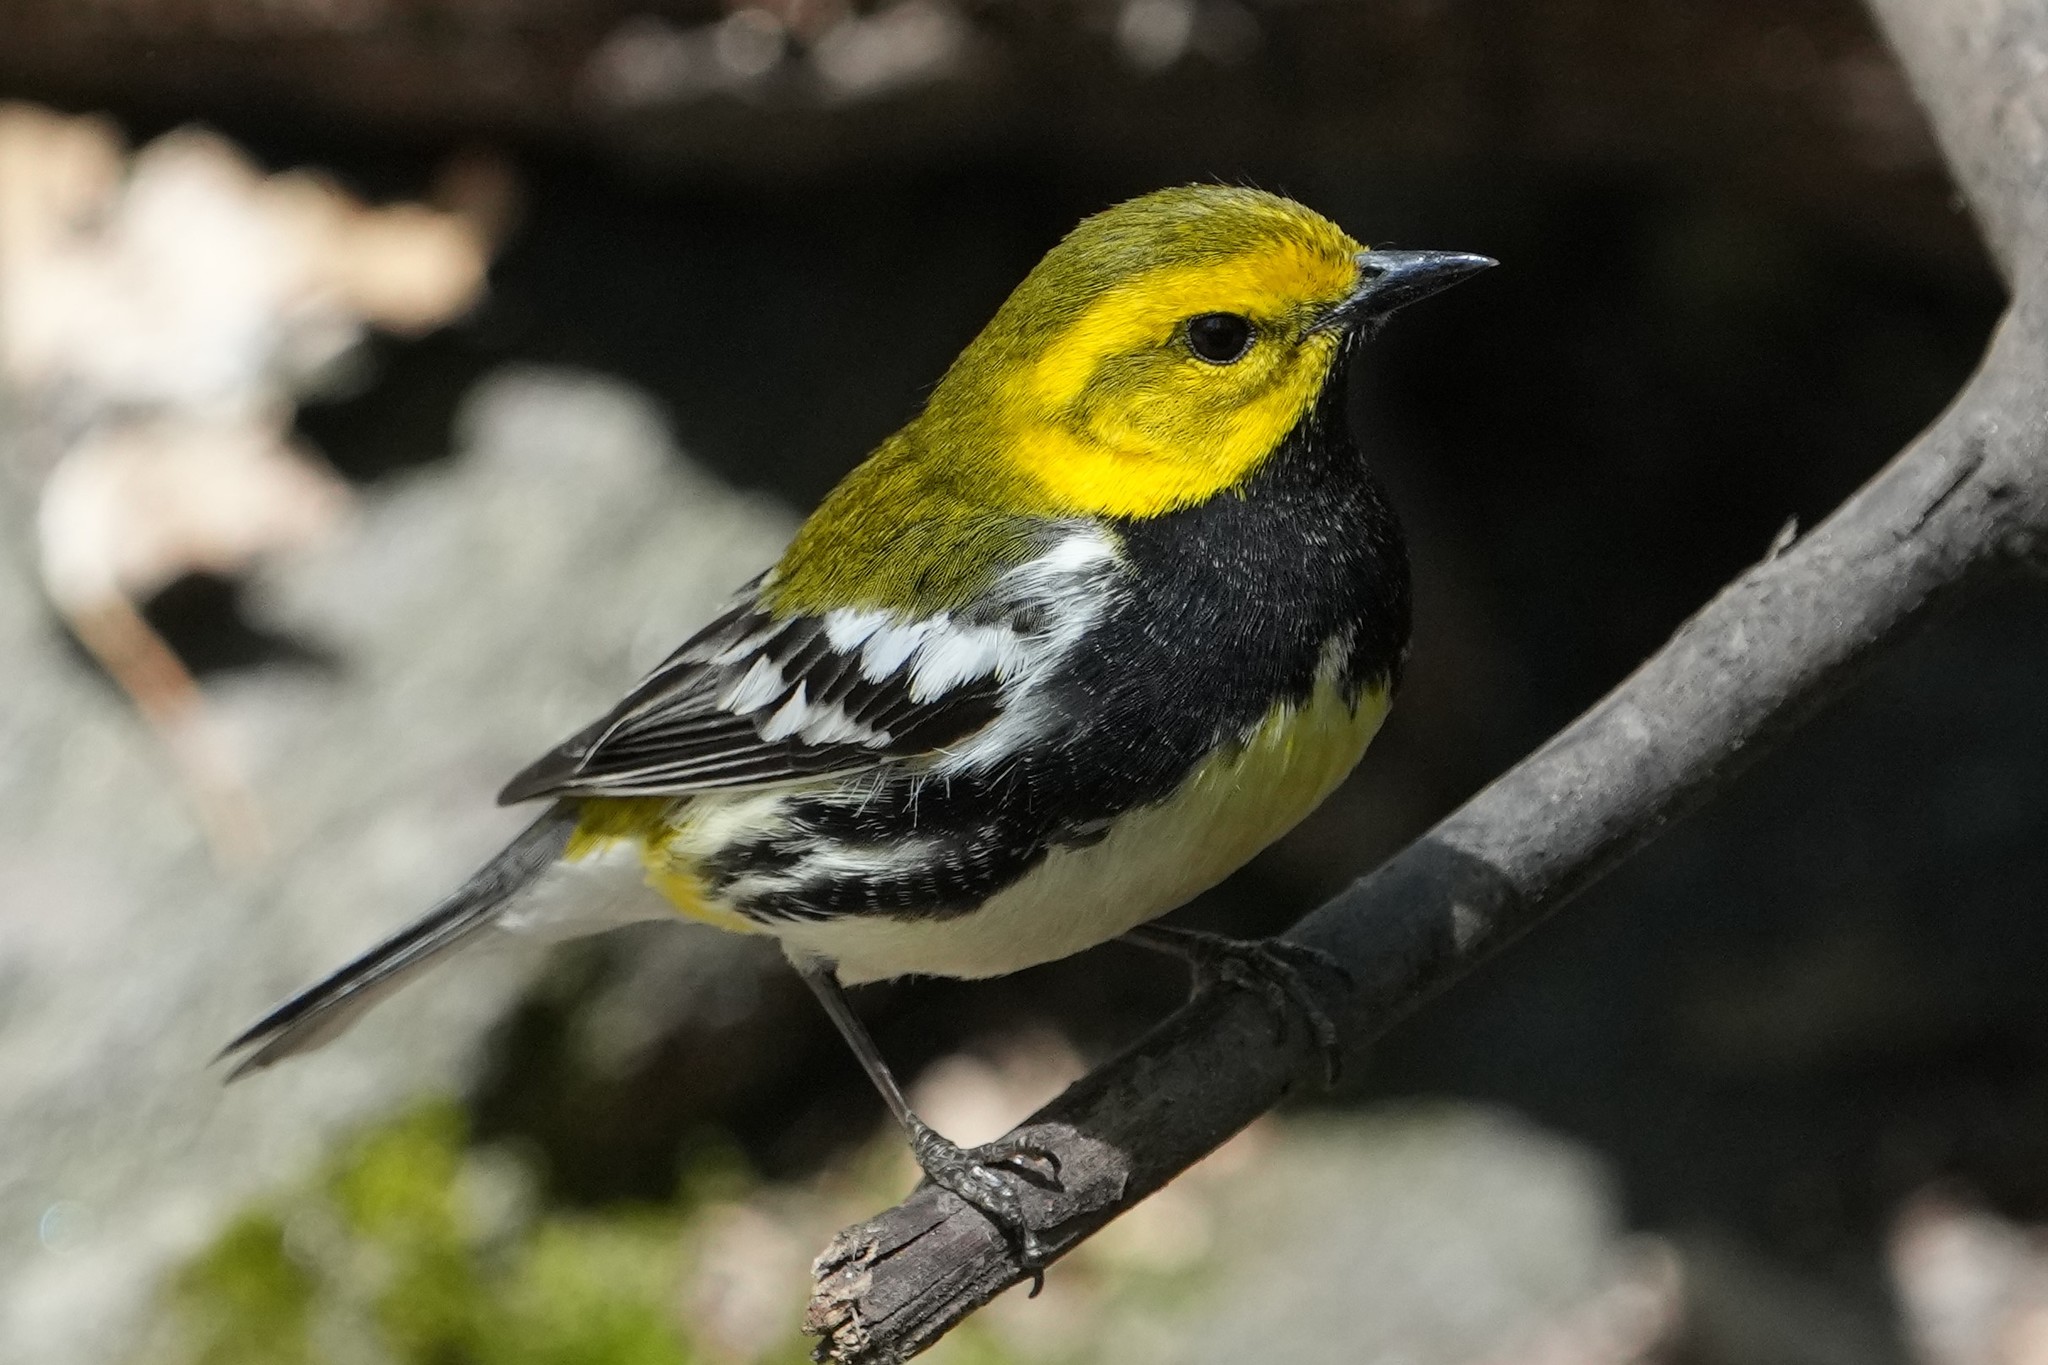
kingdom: Animalia
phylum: Chordata
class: Aves
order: Passeriformes
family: Parulidae
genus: Setophaga
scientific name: Setophaga virens
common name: Black-throated green warbler
